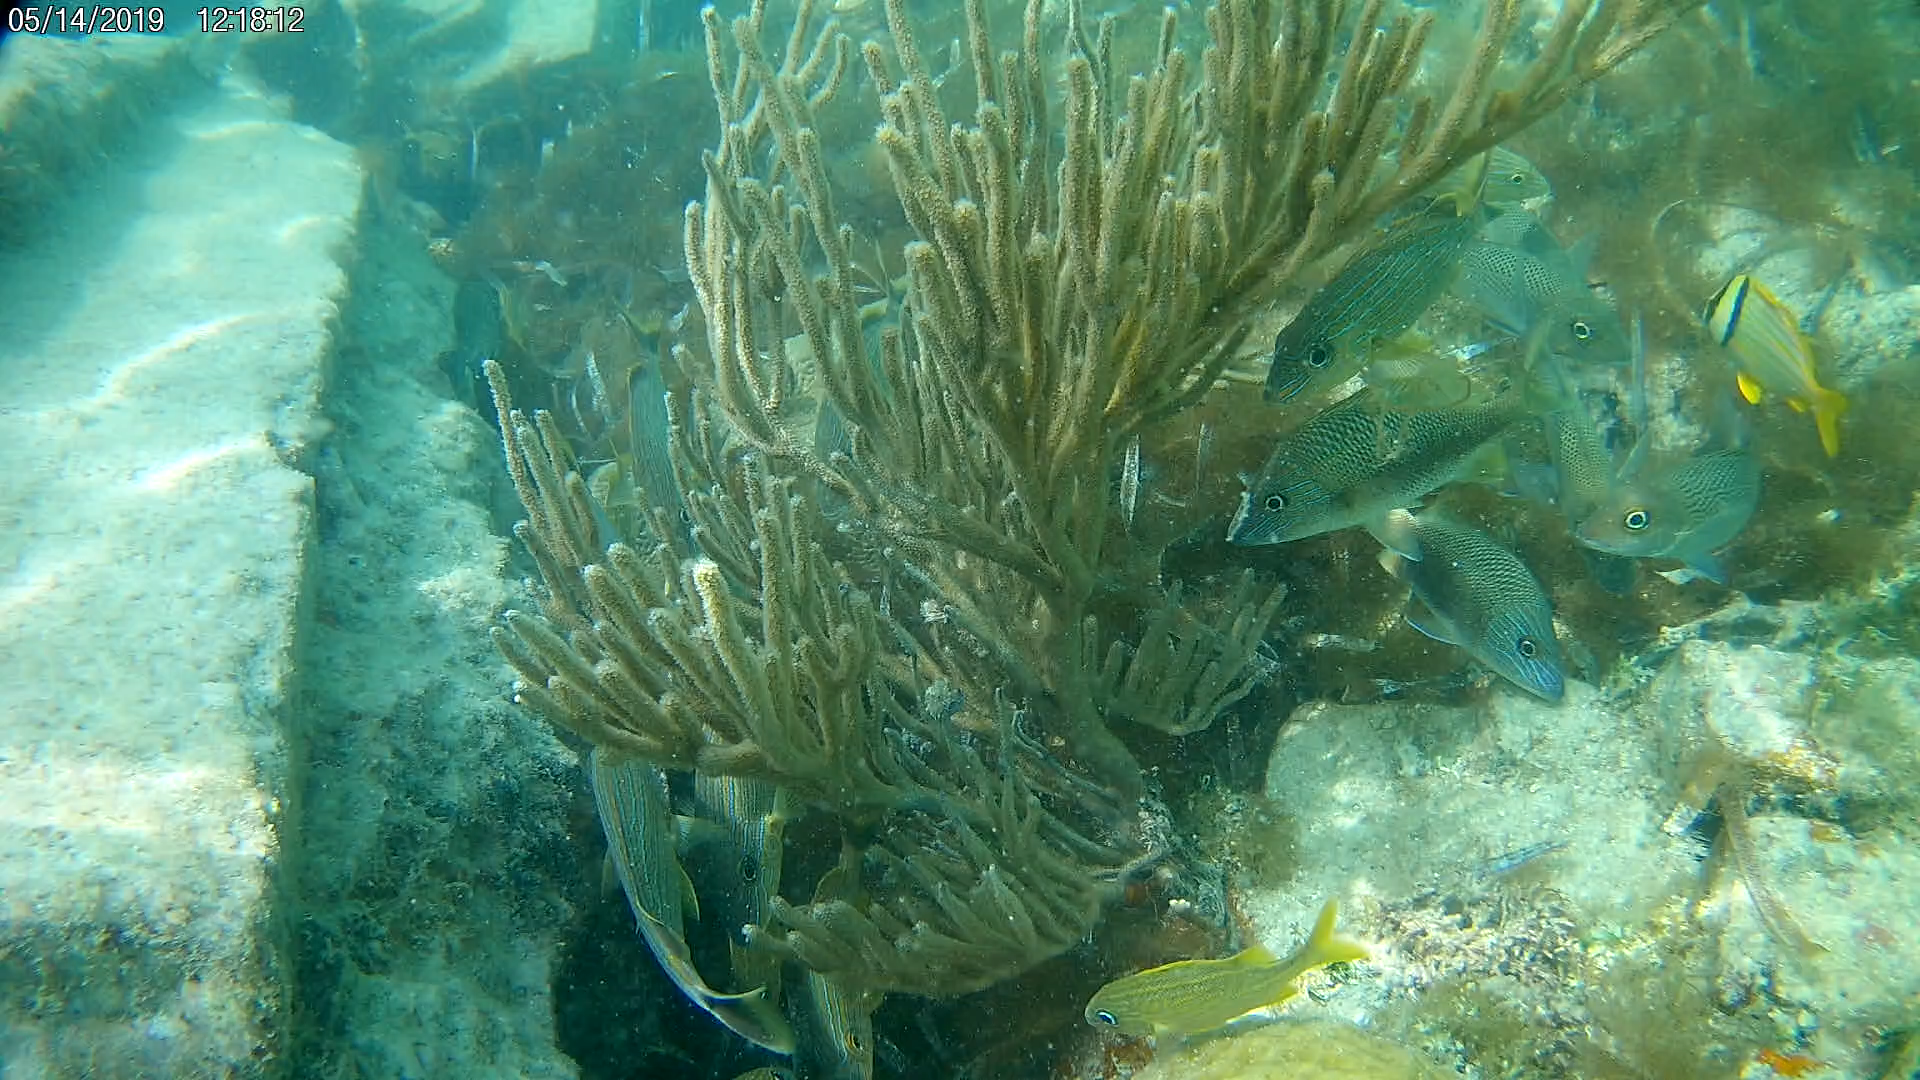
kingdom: Animalia
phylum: Chordata
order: Perciformes
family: Haemulidae
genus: Haemulon
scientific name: Haemulon plumierii
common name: White grunt
